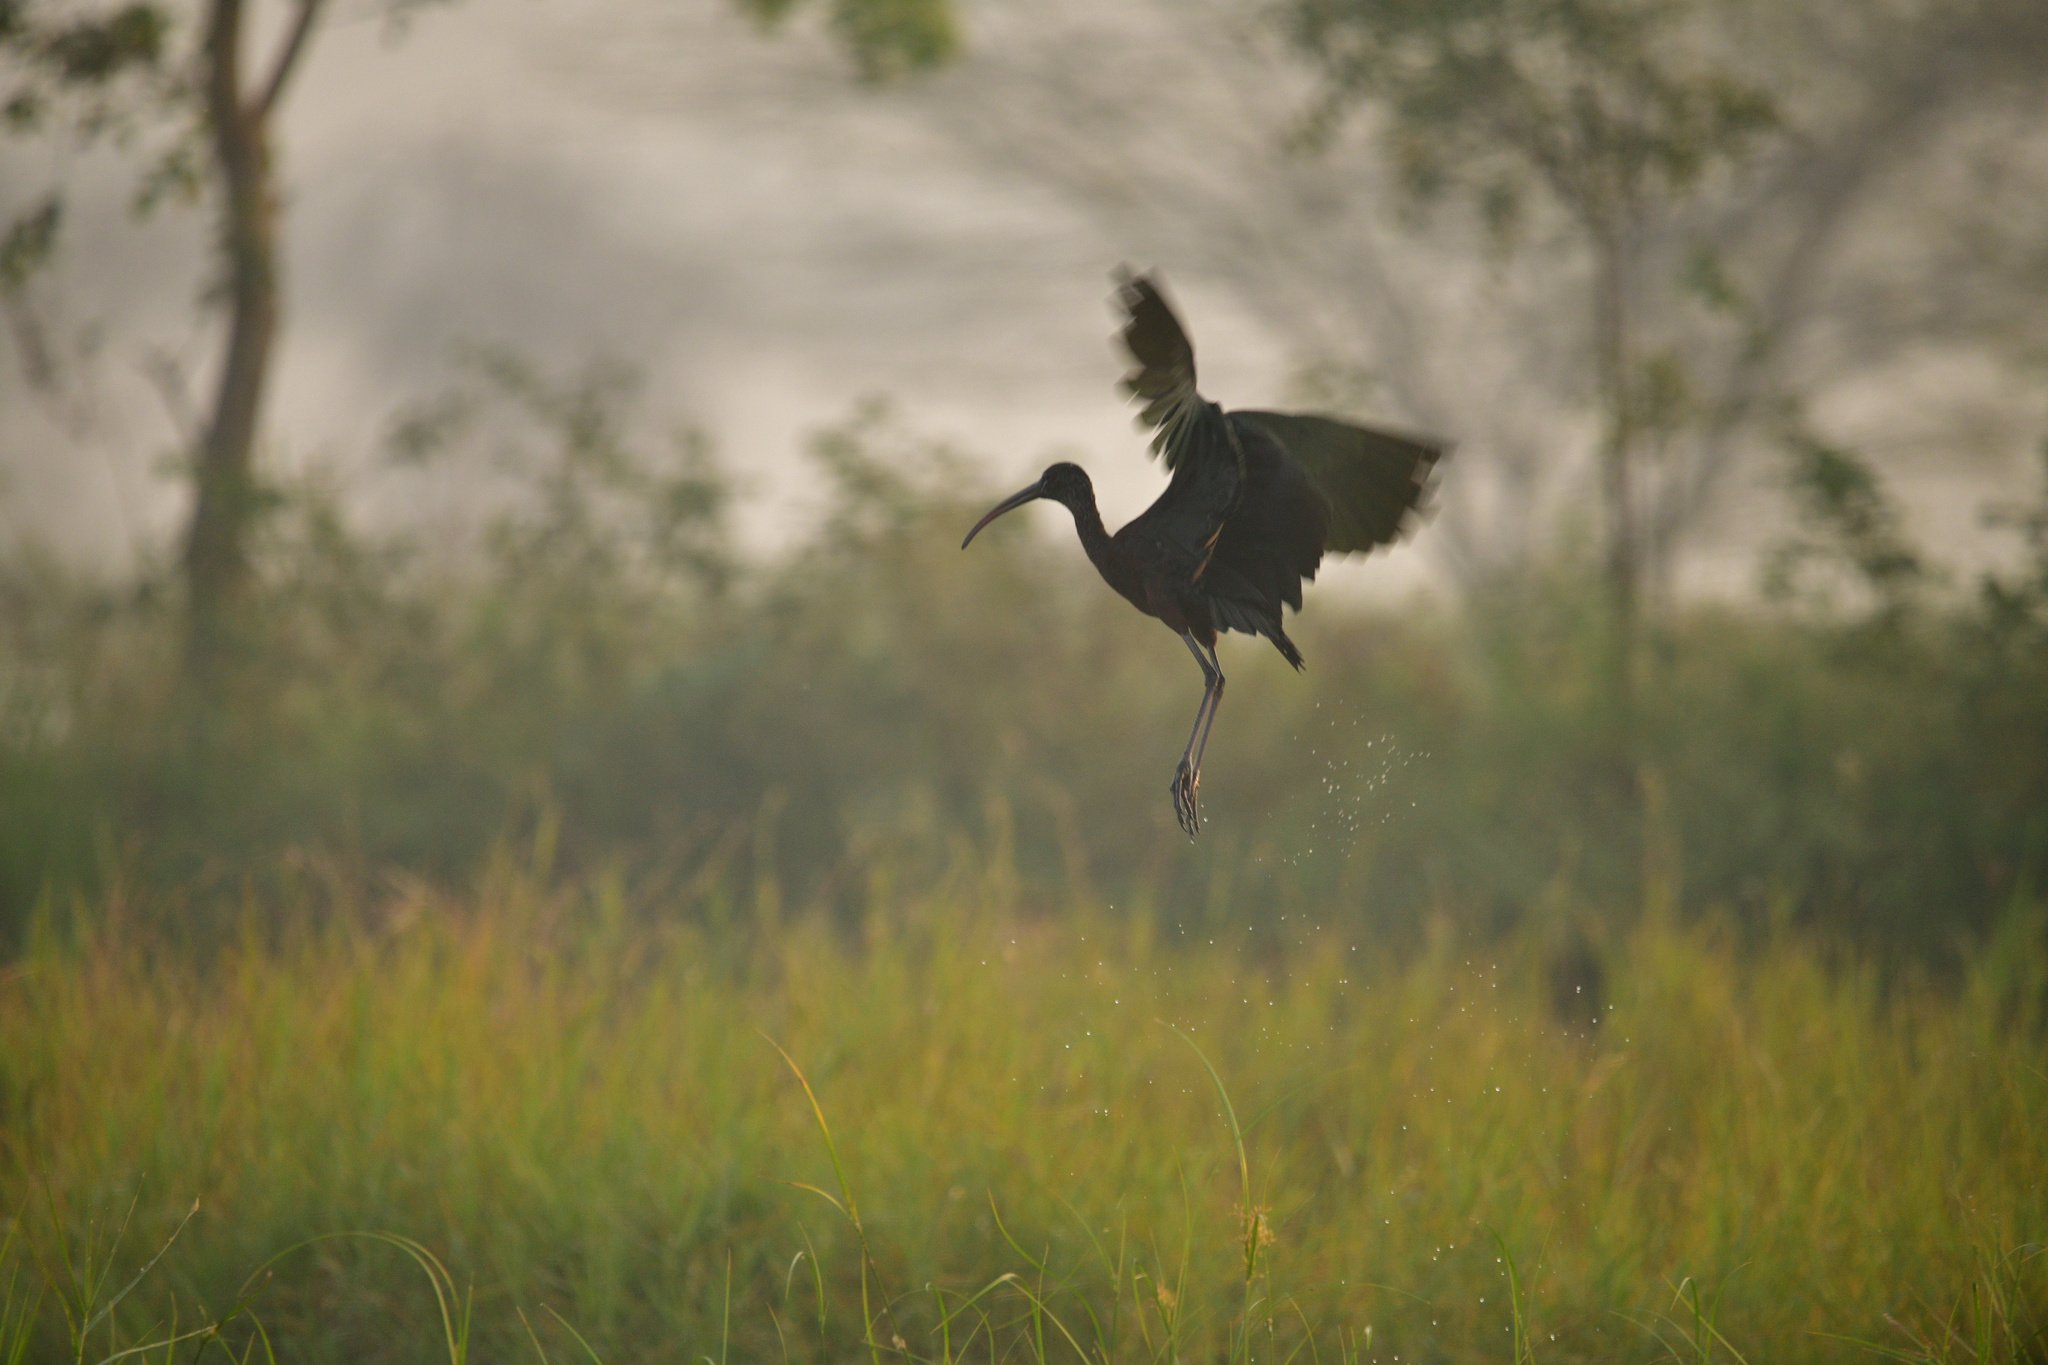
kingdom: Animalia
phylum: Chordata
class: Aves
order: Pelecaniformes
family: Threskiornithidae
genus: Plegadis
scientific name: Plegadis falcinellus
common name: Glossy ibis
